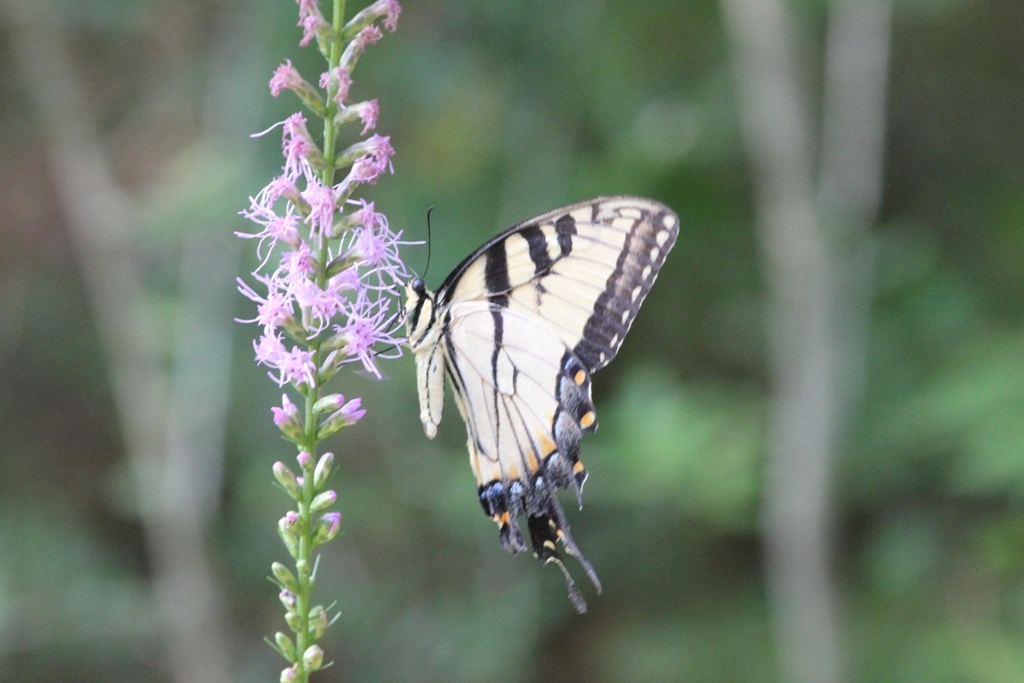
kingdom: Animalia
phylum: Arthropoda
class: Insecta
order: Lepidoptera
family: Papilionidae
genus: Papilio
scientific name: Papilio glaucus
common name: Tiger swallowtail
